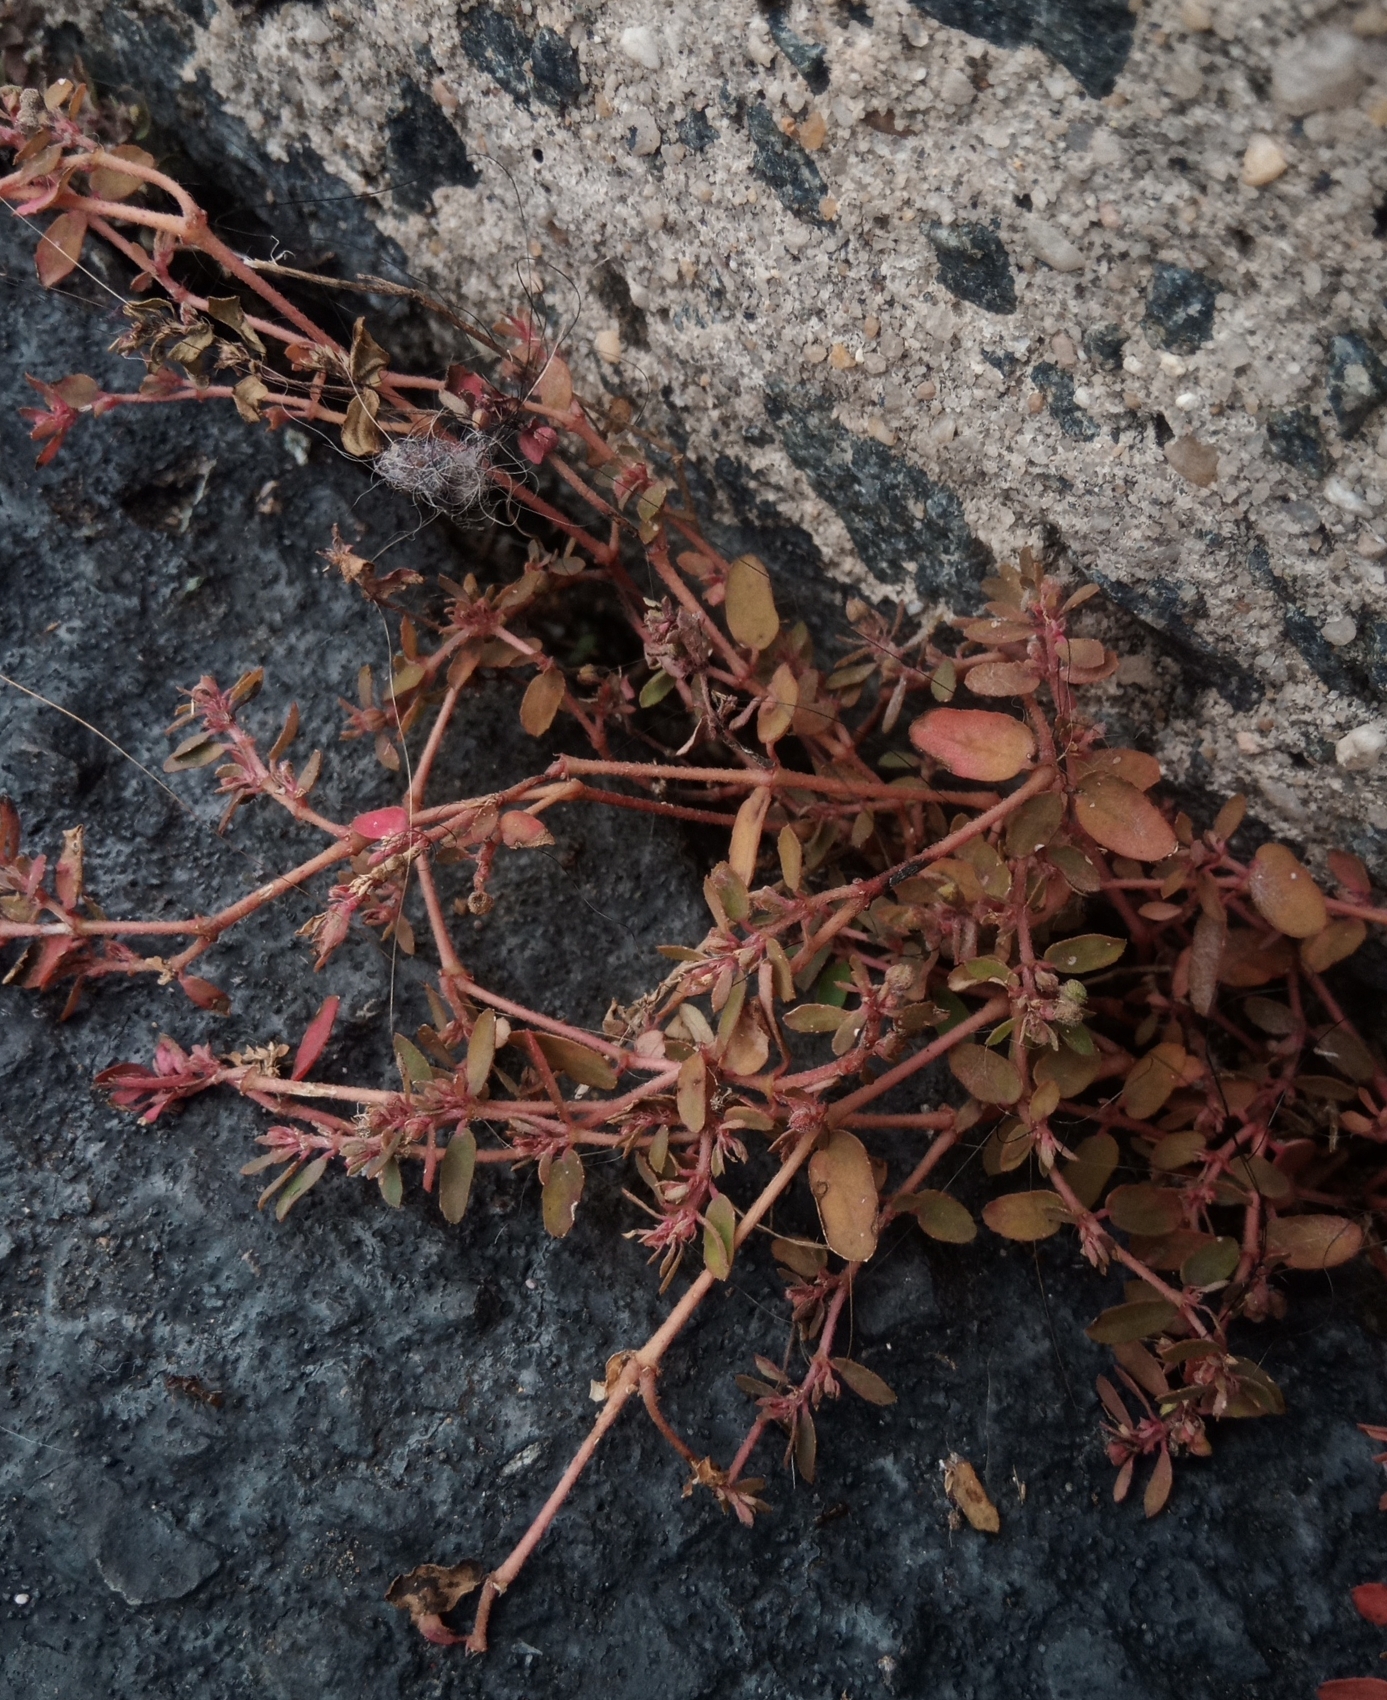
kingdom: Plantae
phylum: Tracheophyta
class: Magnoliopsida
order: Malpighiales
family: Euphorbiaceae
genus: Euphorbia
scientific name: Euphorbia maculata
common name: Spotted spurge
